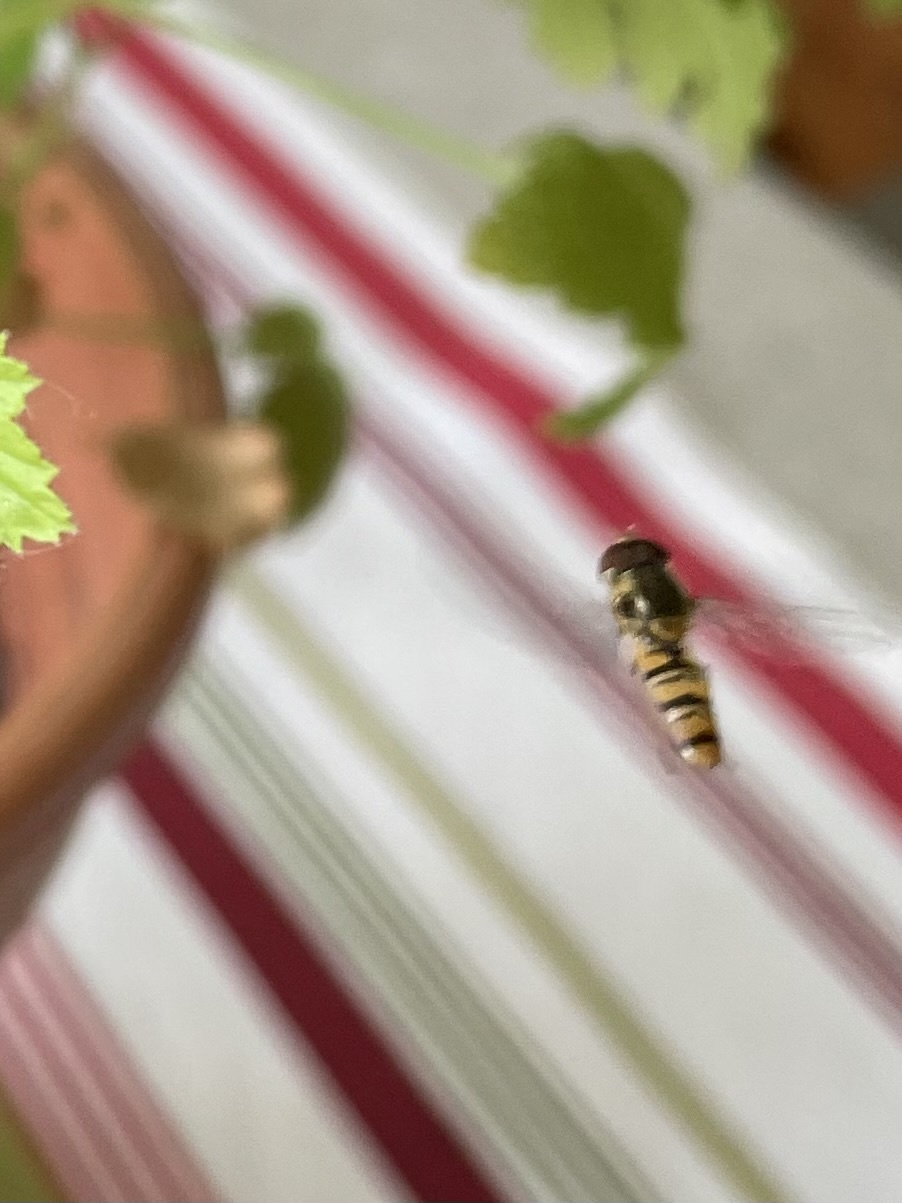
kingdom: Animalia
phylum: Arthropoda
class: Insecta
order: Diptera
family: Syrphidae
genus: Episyrphus
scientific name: Episyrphus balteatus
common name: Marmalade hoverfly
